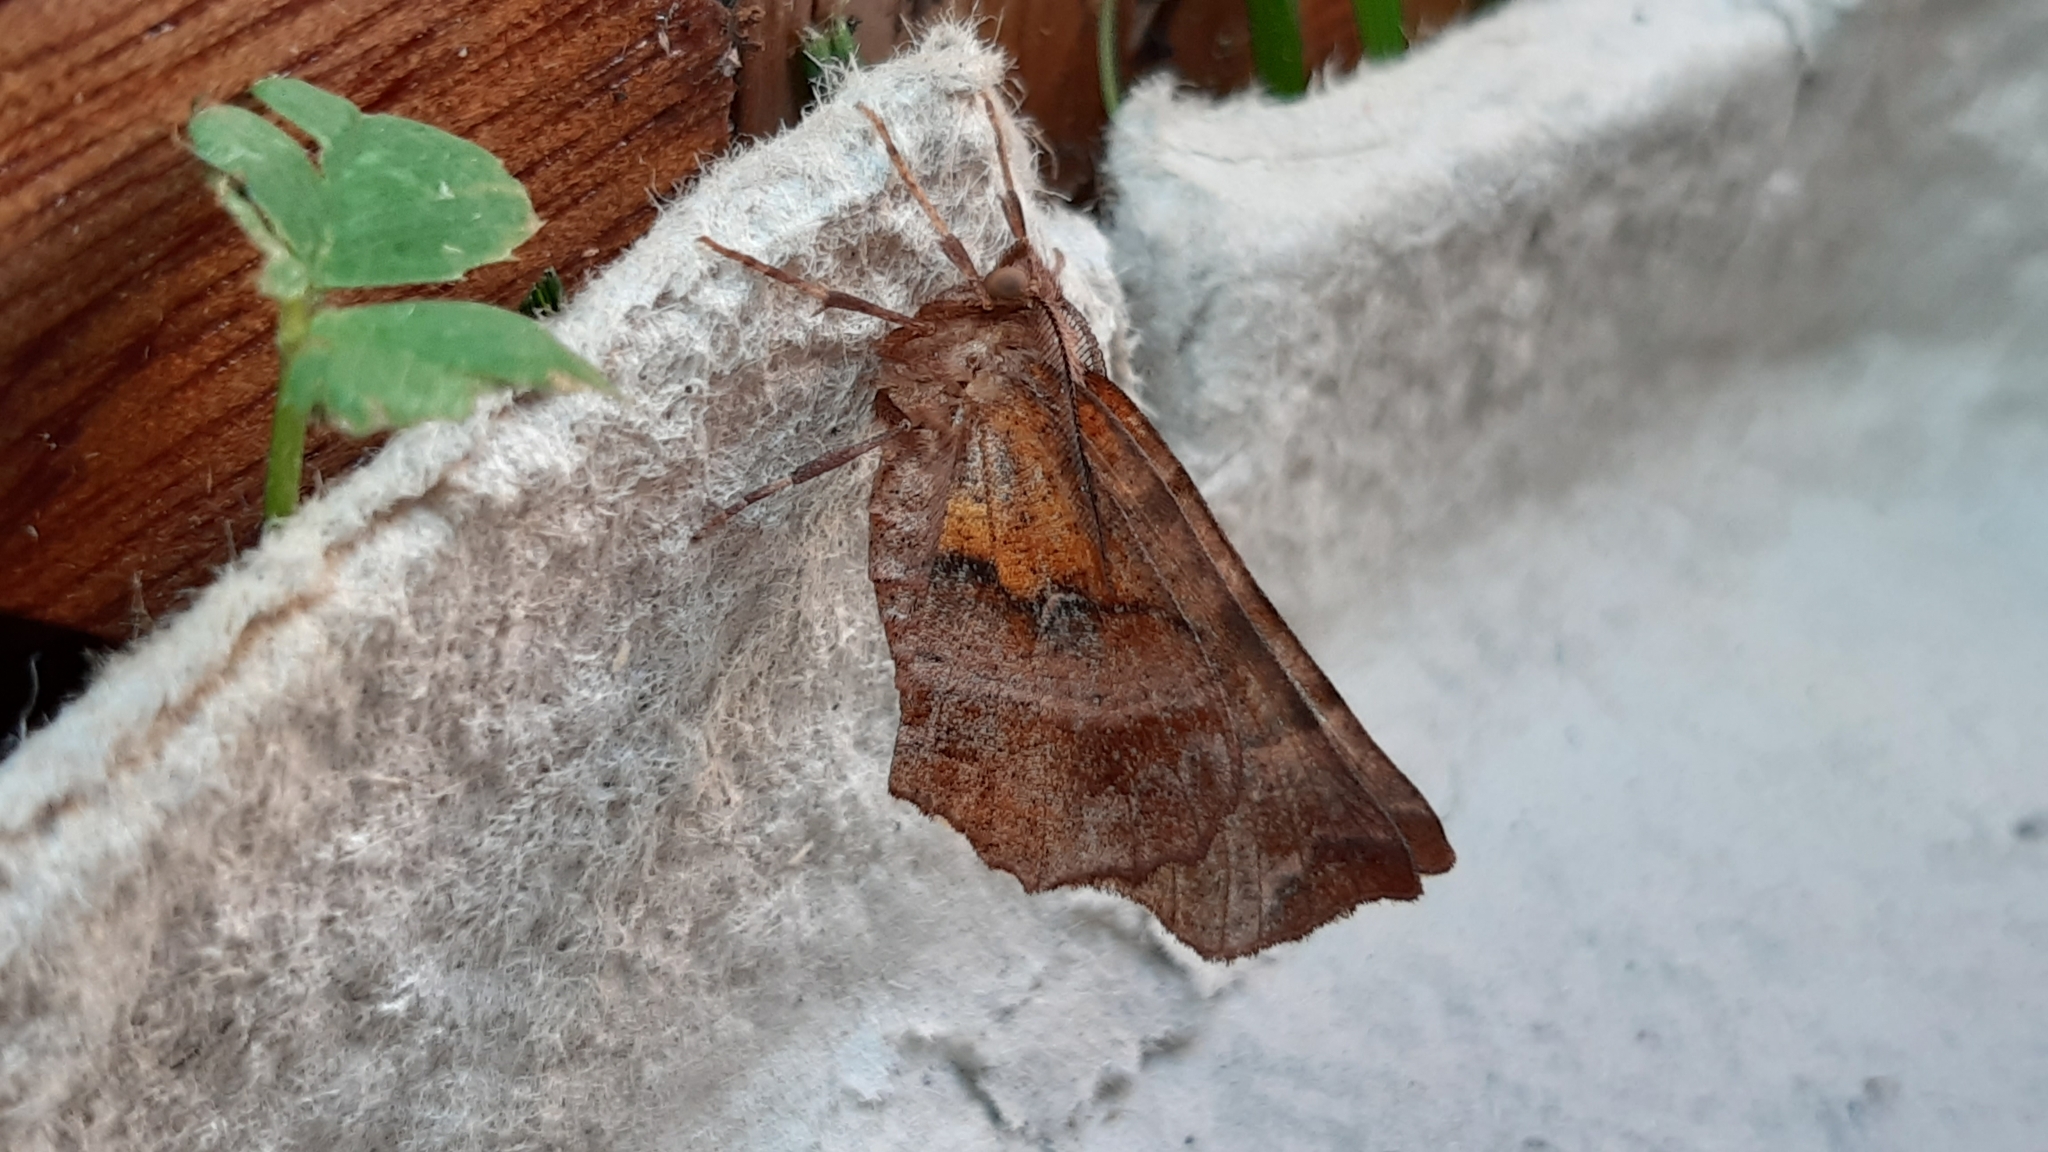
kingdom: Animalia
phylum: Arthropoda
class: Insecta
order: Lepidoptera
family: Geometridae
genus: Selenia
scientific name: Selenia dentaria
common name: Early thorn
